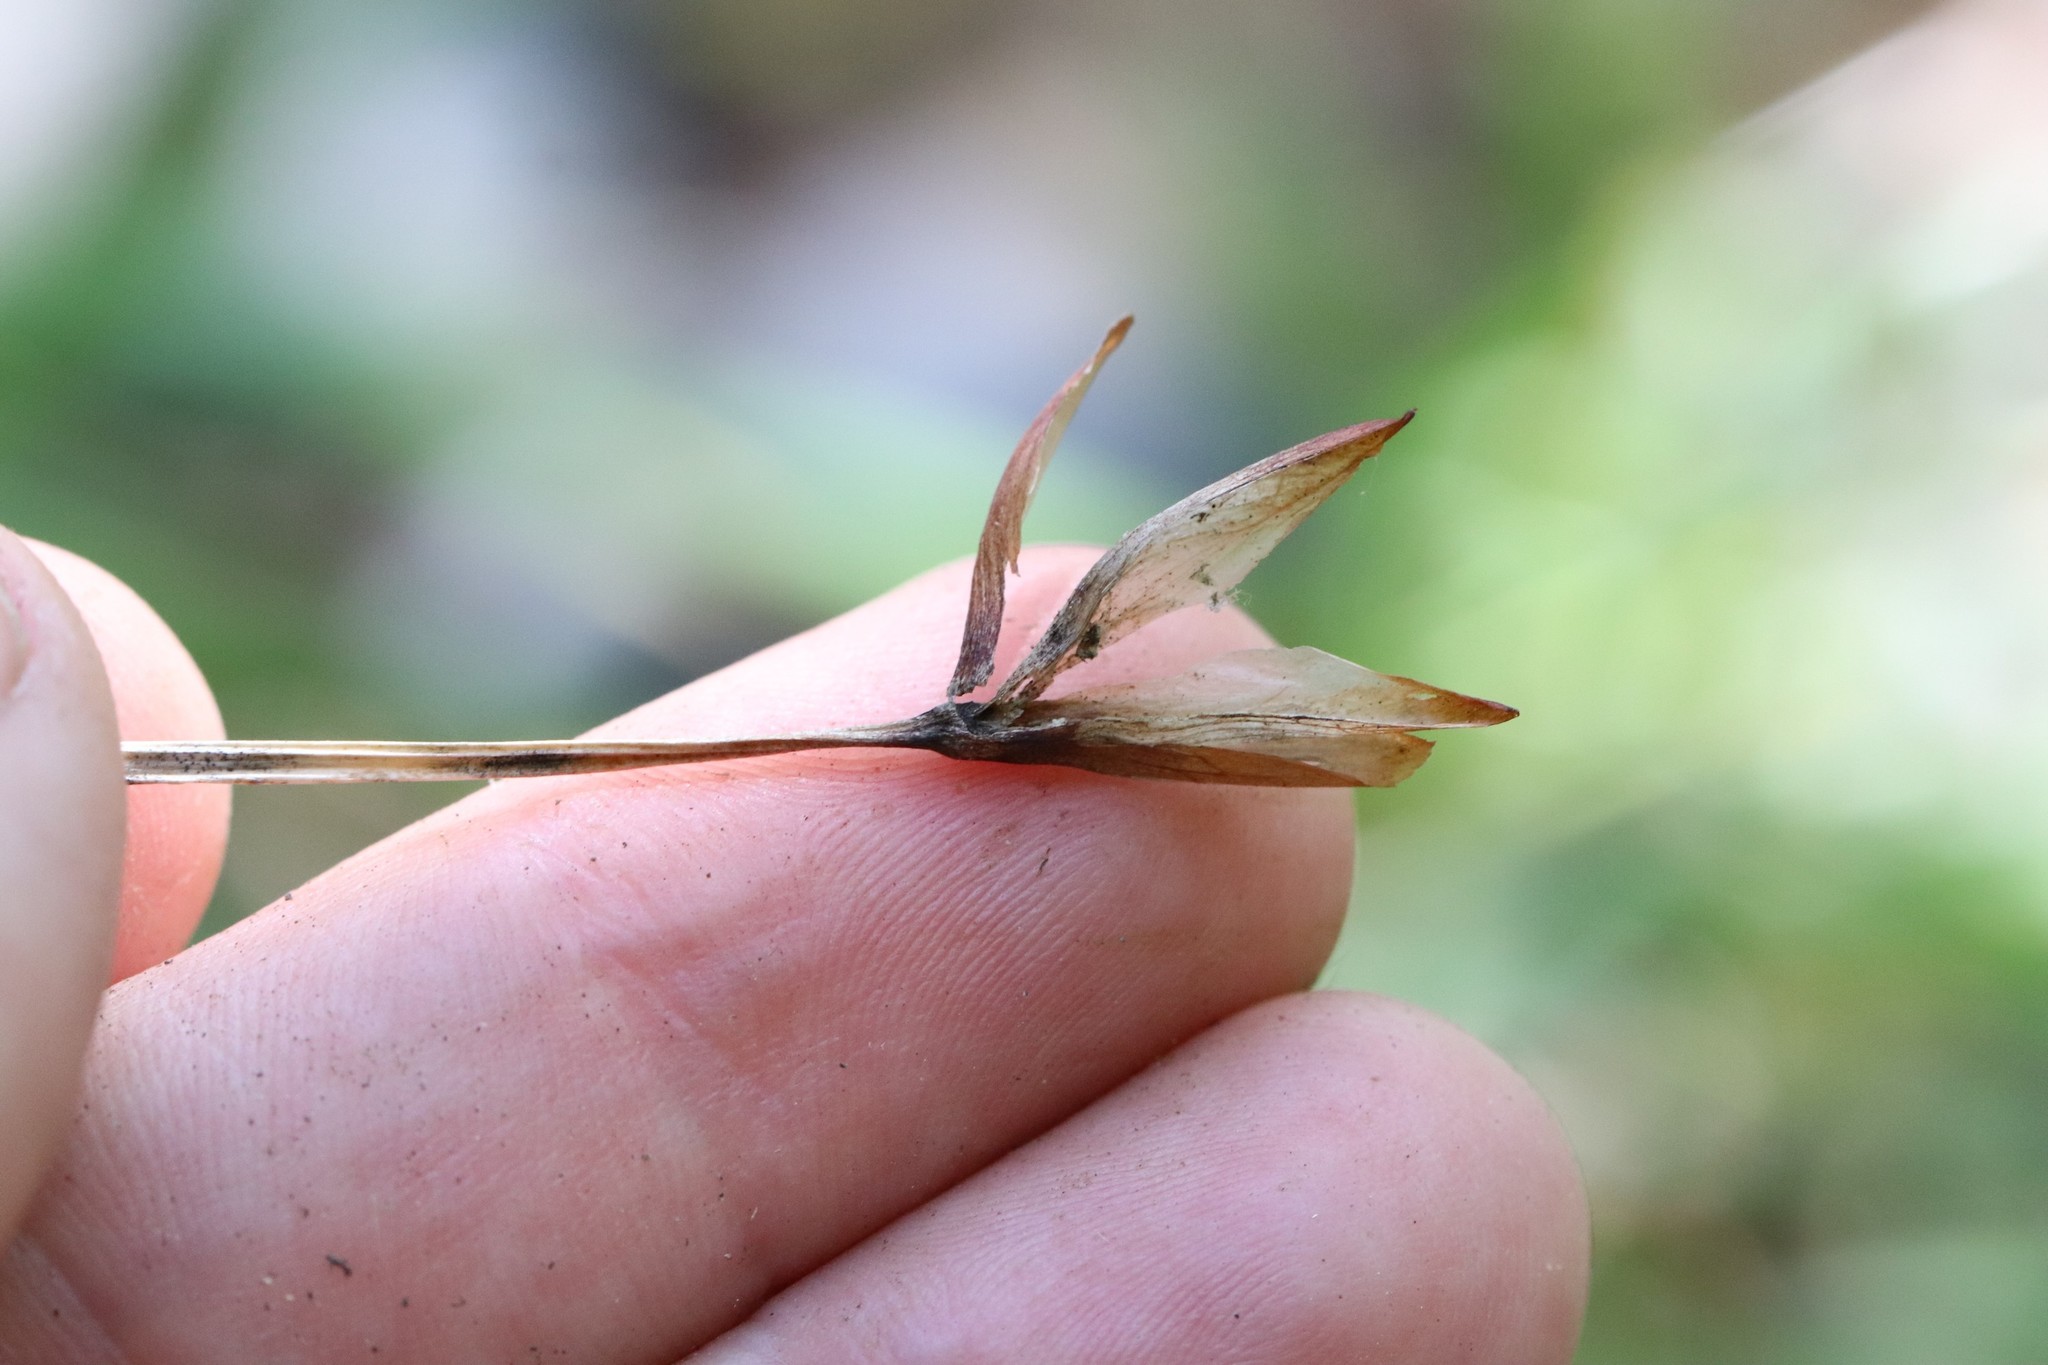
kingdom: Plantae
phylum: Tracheophyta
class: Liliopsida
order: Asparagales
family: Iridaceae
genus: Iris
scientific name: Iris uniflora
